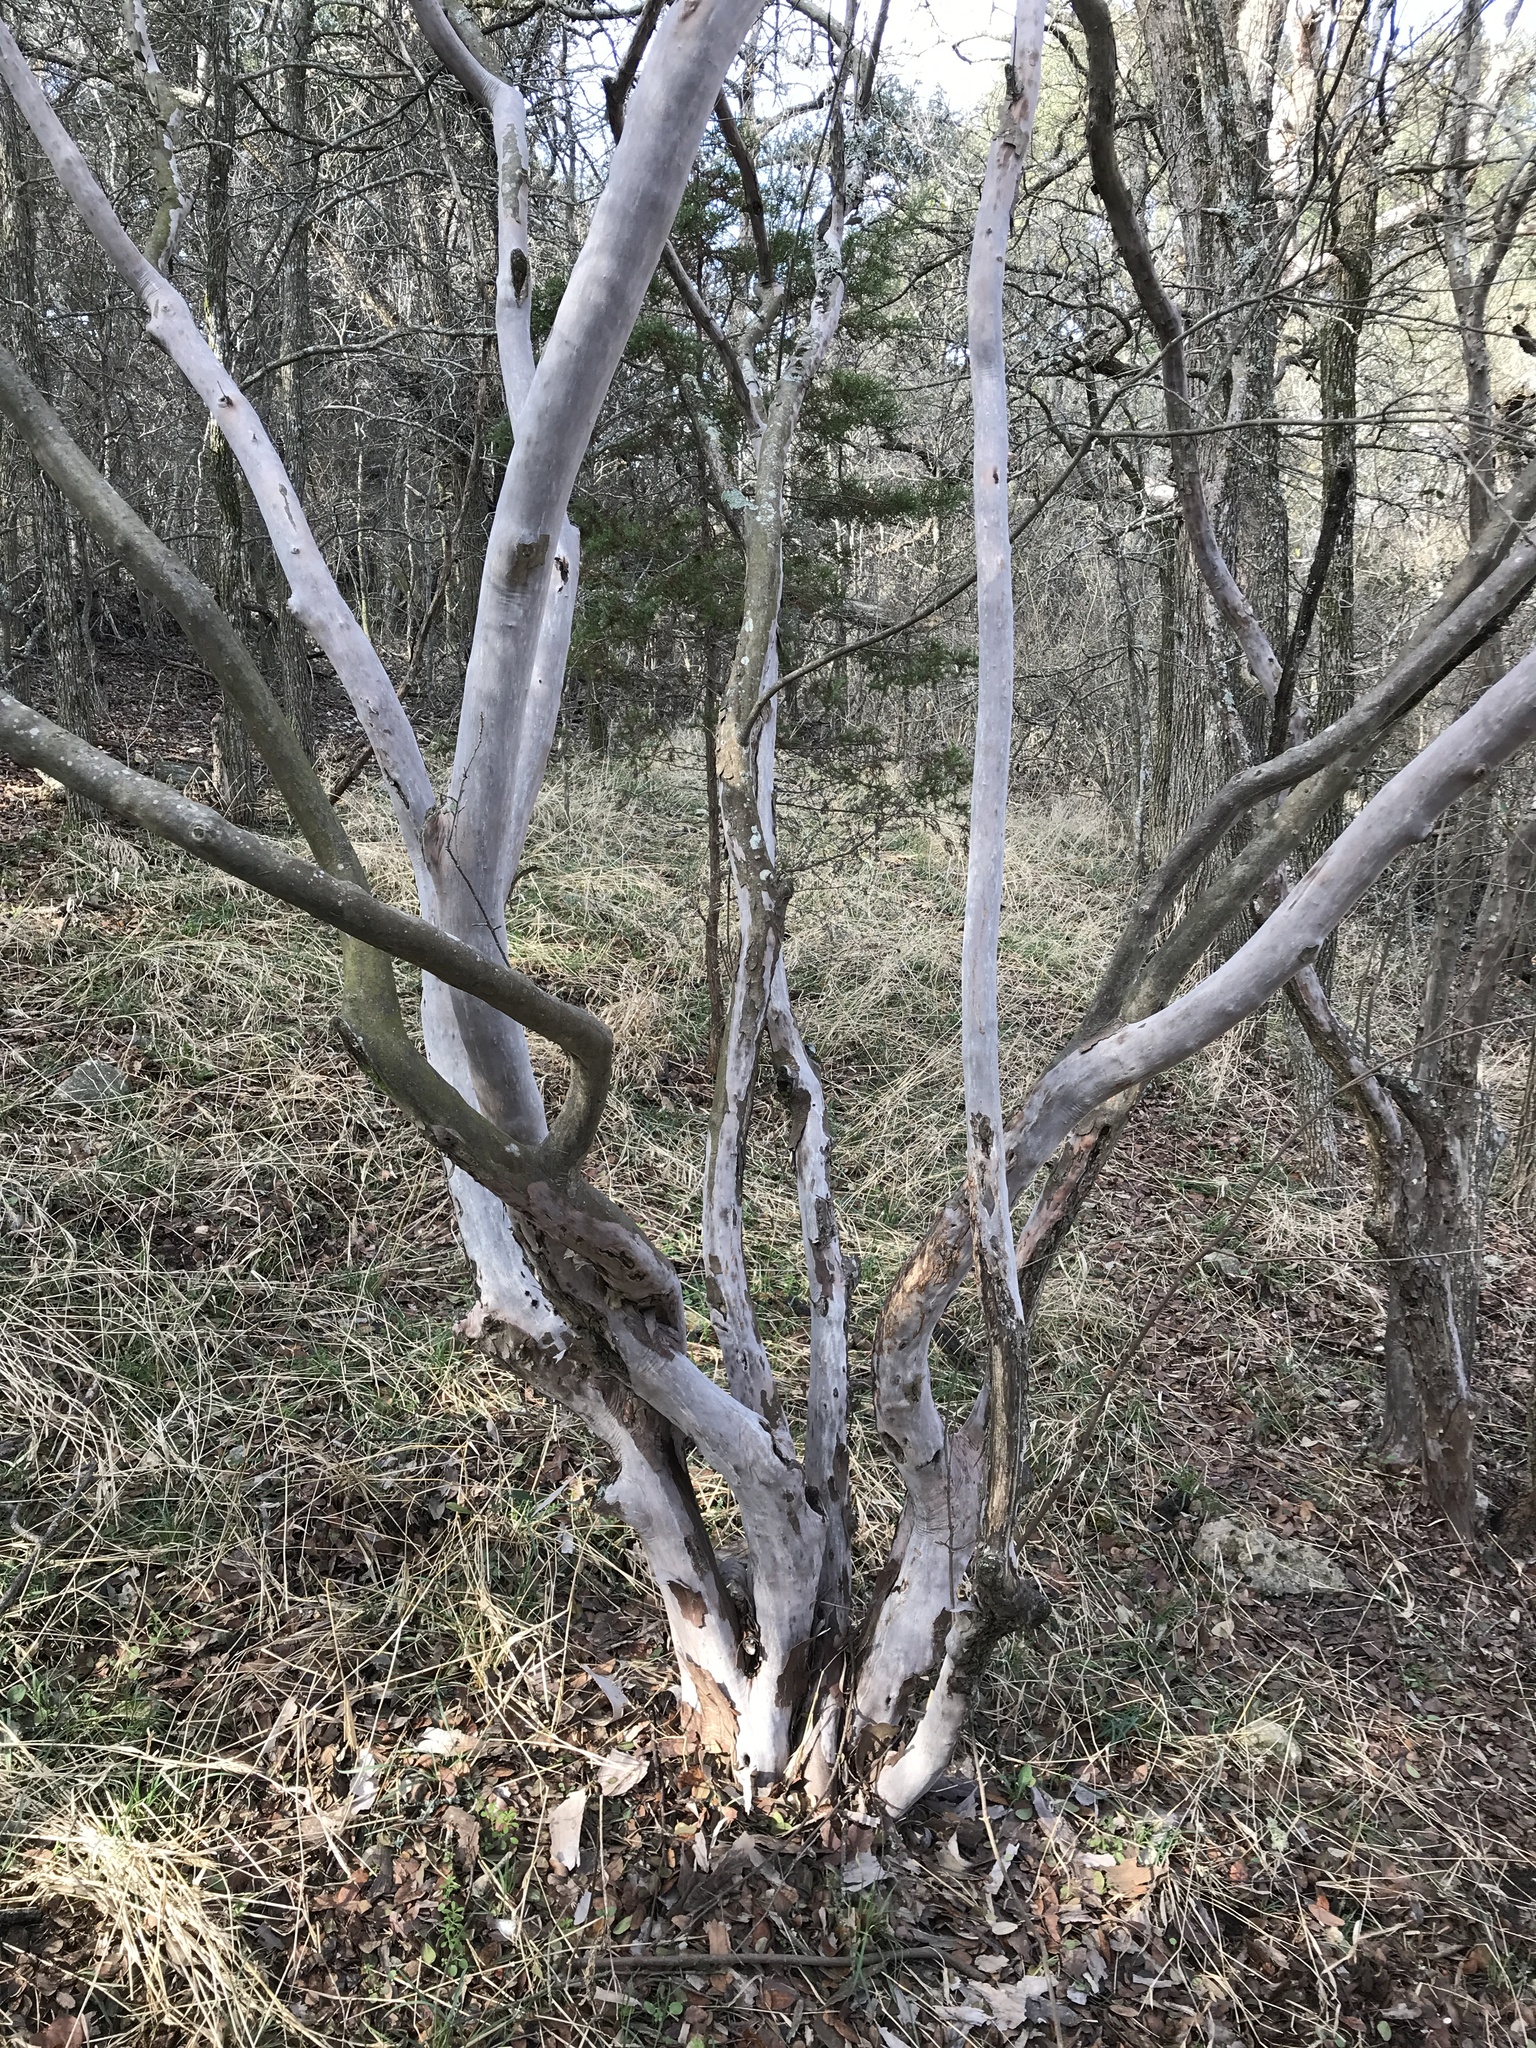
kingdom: Plantae
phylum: Tracheophyta
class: Magnoliopsida
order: Ericales
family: Ebenaceae
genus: Diospyros
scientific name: Diospyros texana
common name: Texas persimmon
